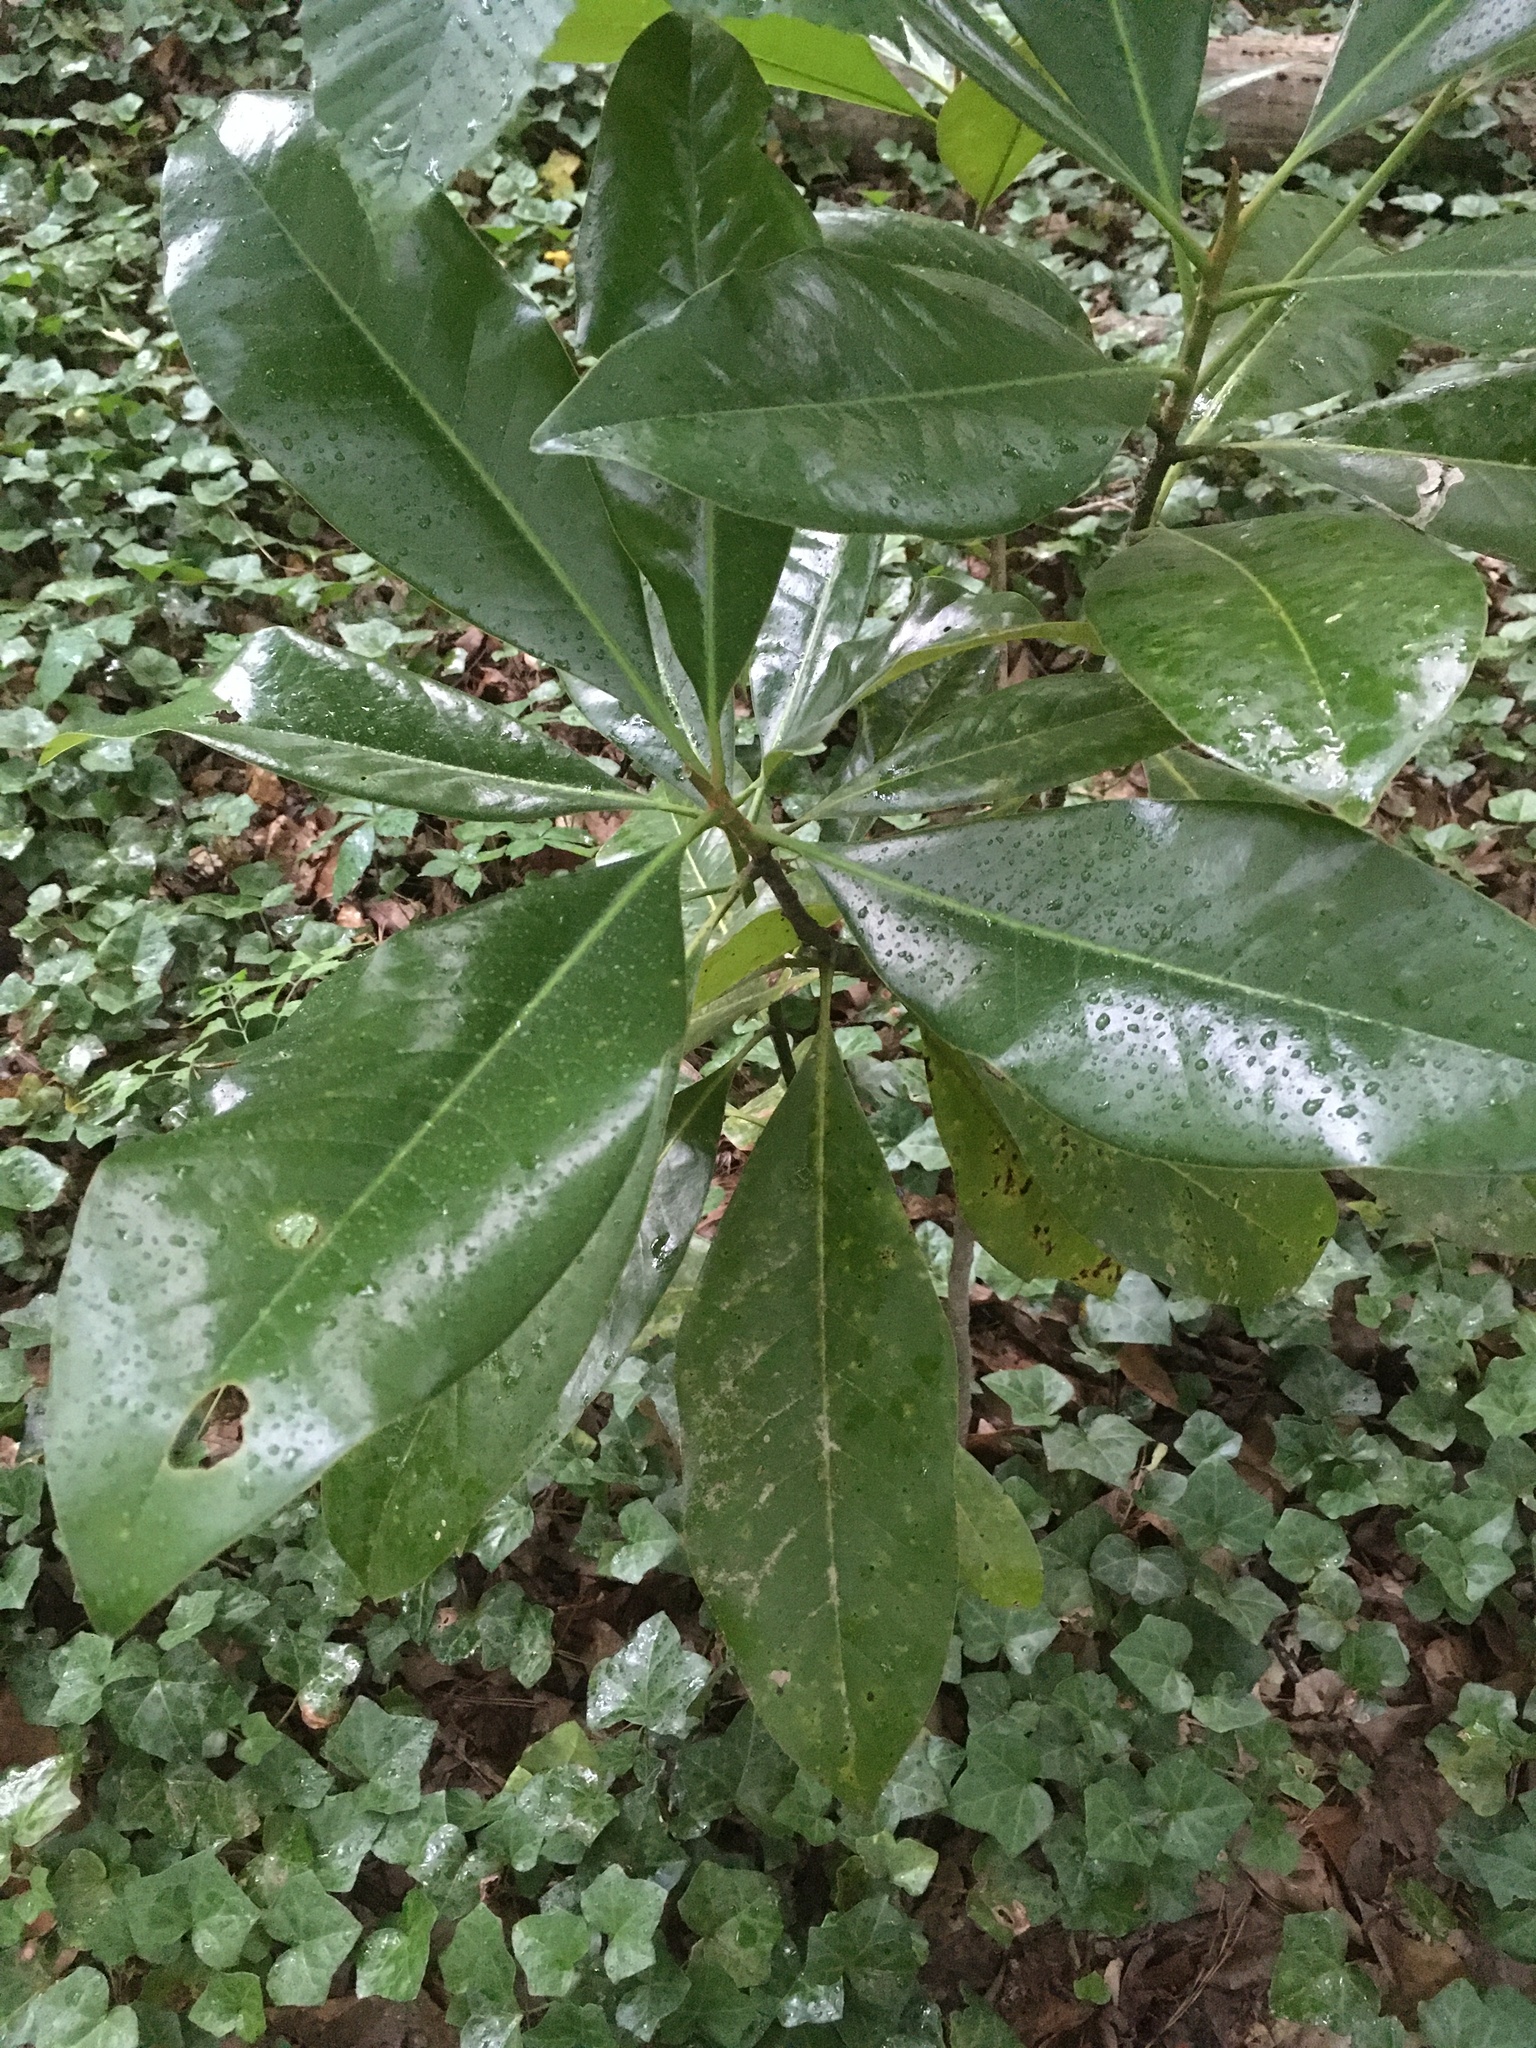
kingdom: Plantae
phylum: Tracheophyta
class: Magnoliopsida
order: Magnoliales
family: Magnoliaceae
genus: Magnolia
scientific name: Magnolia grandiflora
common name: Southern magnolia
